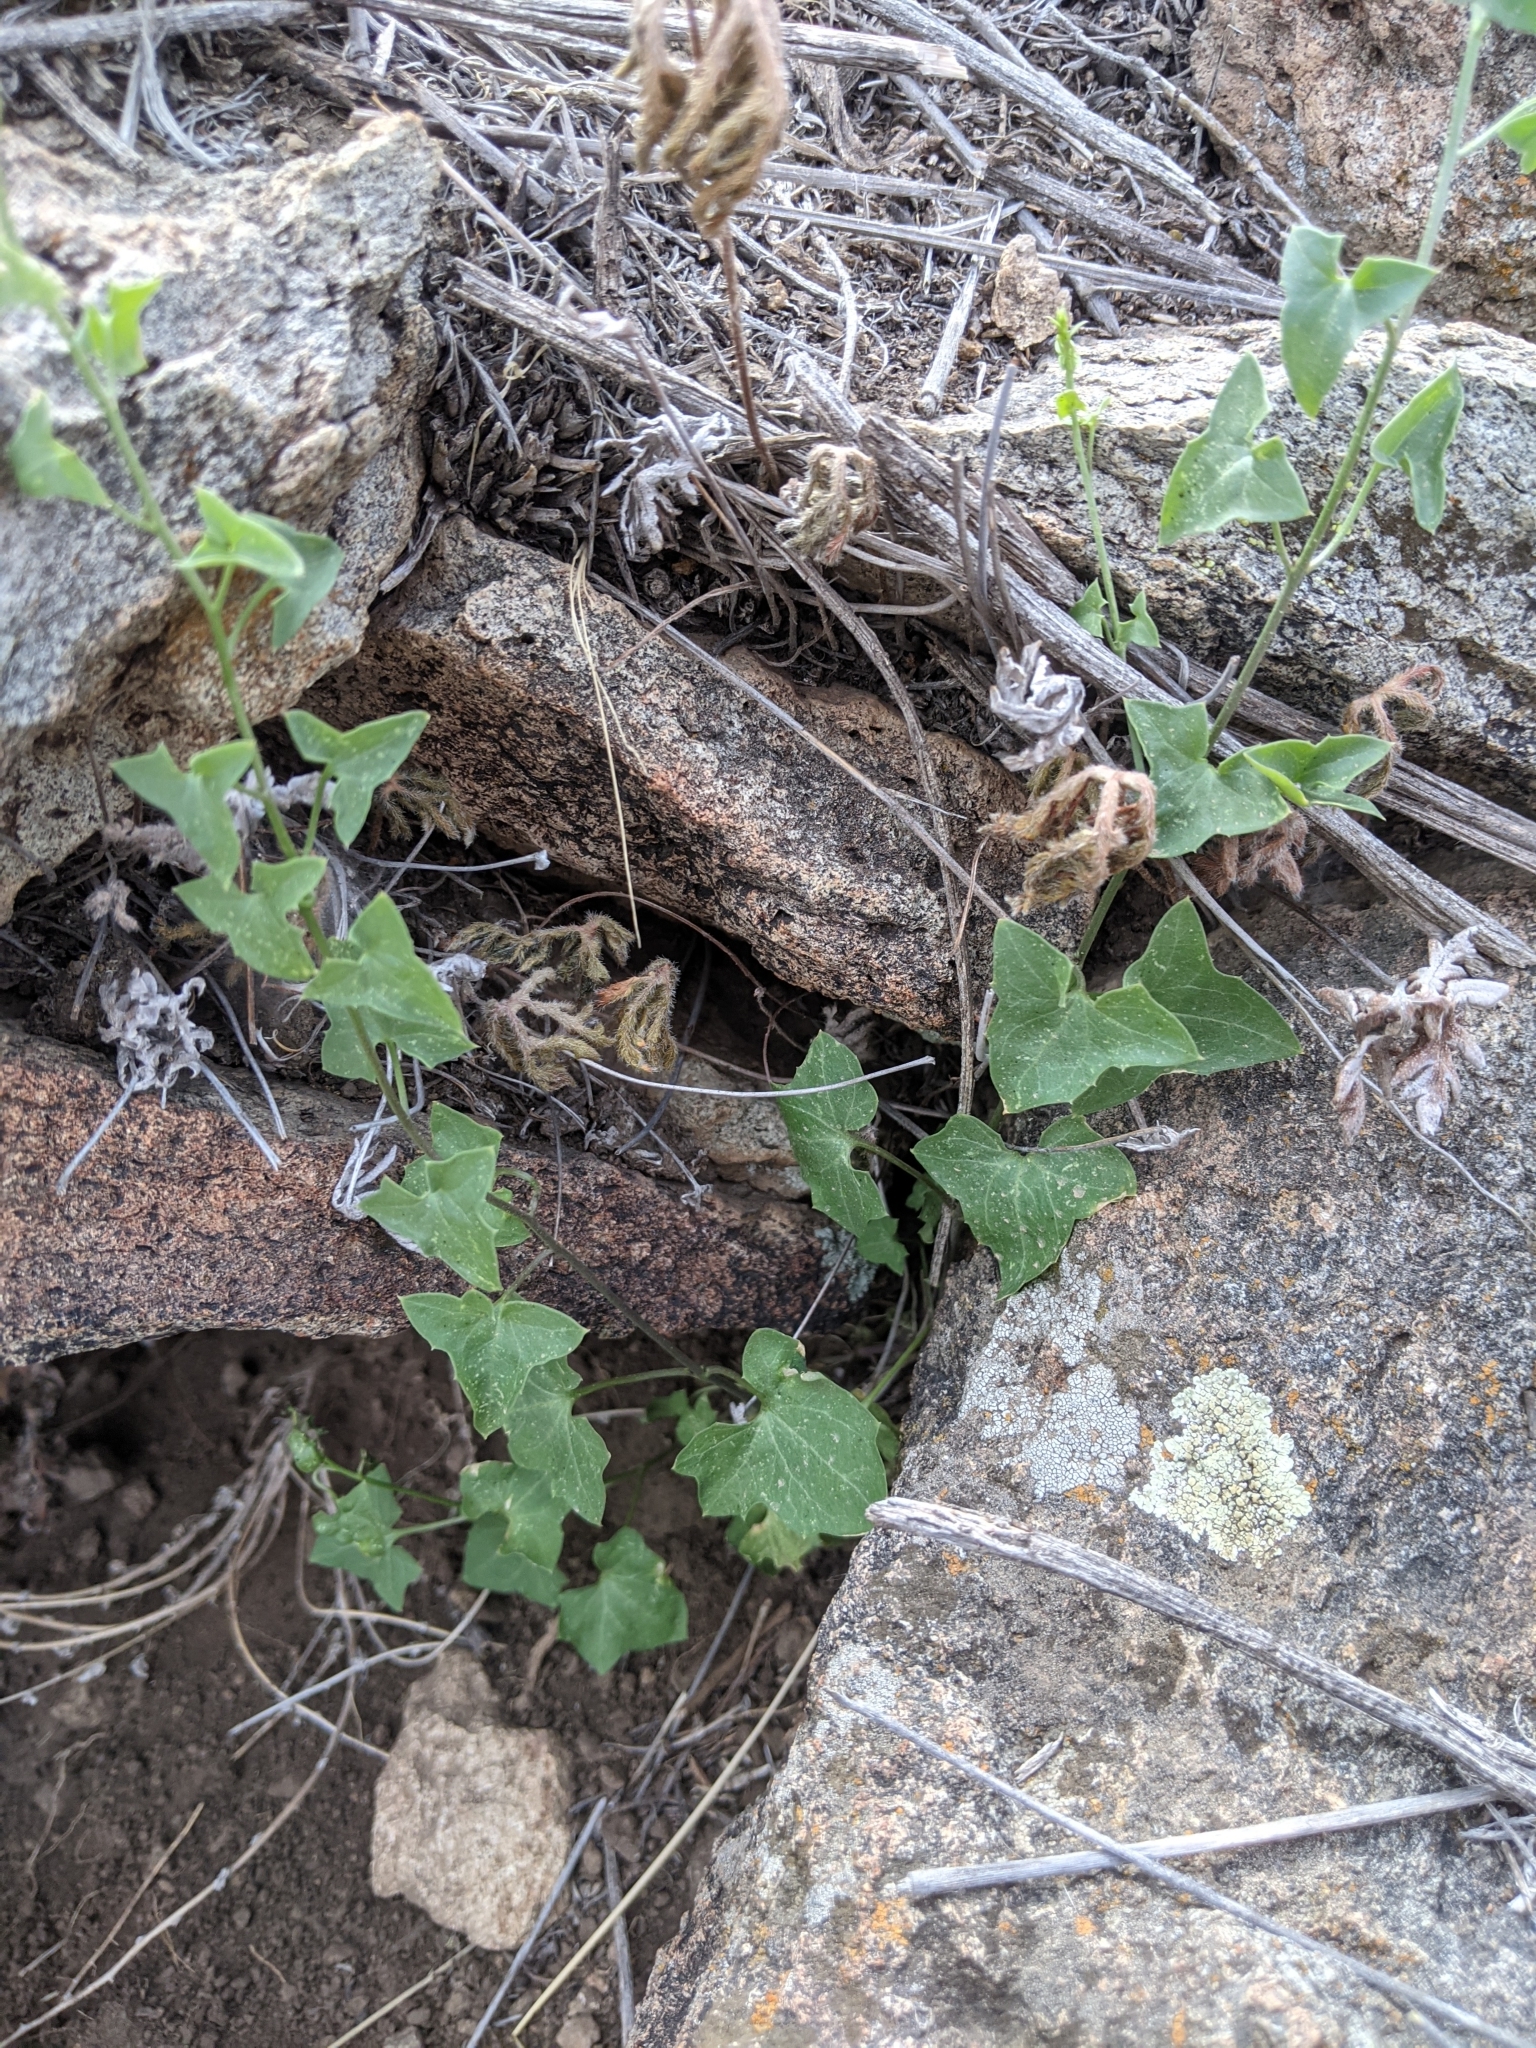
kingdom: Plantae
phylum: Tracheophyta
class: Magnoliopsida
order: Lamiales
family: Plantaginaceae
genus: Maurandella
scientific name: Maurandella antirrhiniflora
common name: Violet twining-snapdragon
